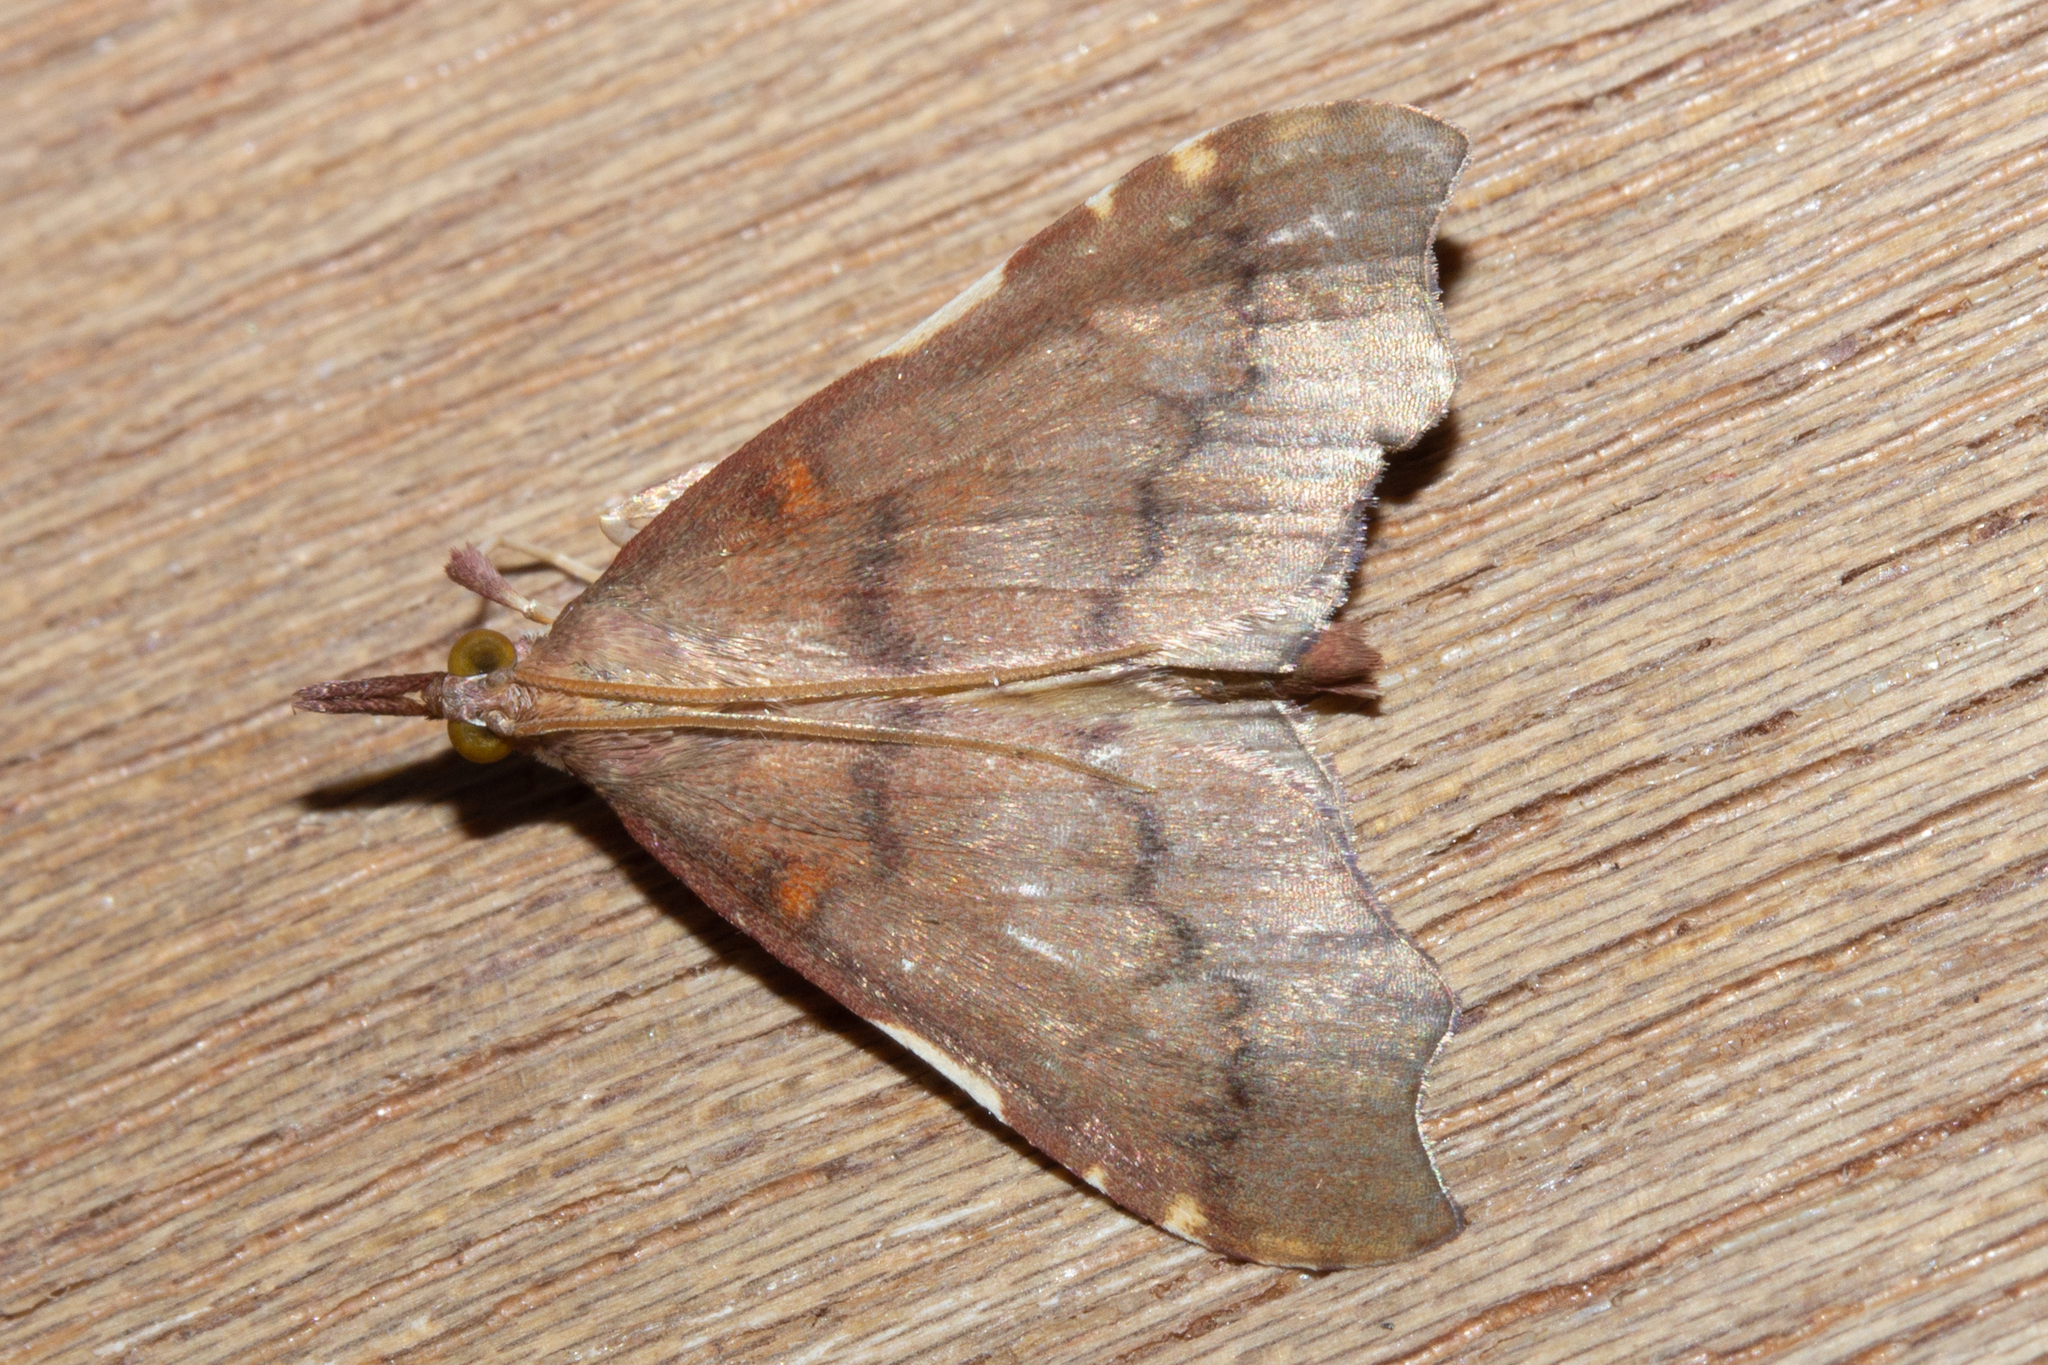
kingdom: Animalia
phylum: Arthropoda
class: Insecta
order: Lepidoptera
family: Crambidae
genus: Deana
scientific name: Deana hybreasalis
